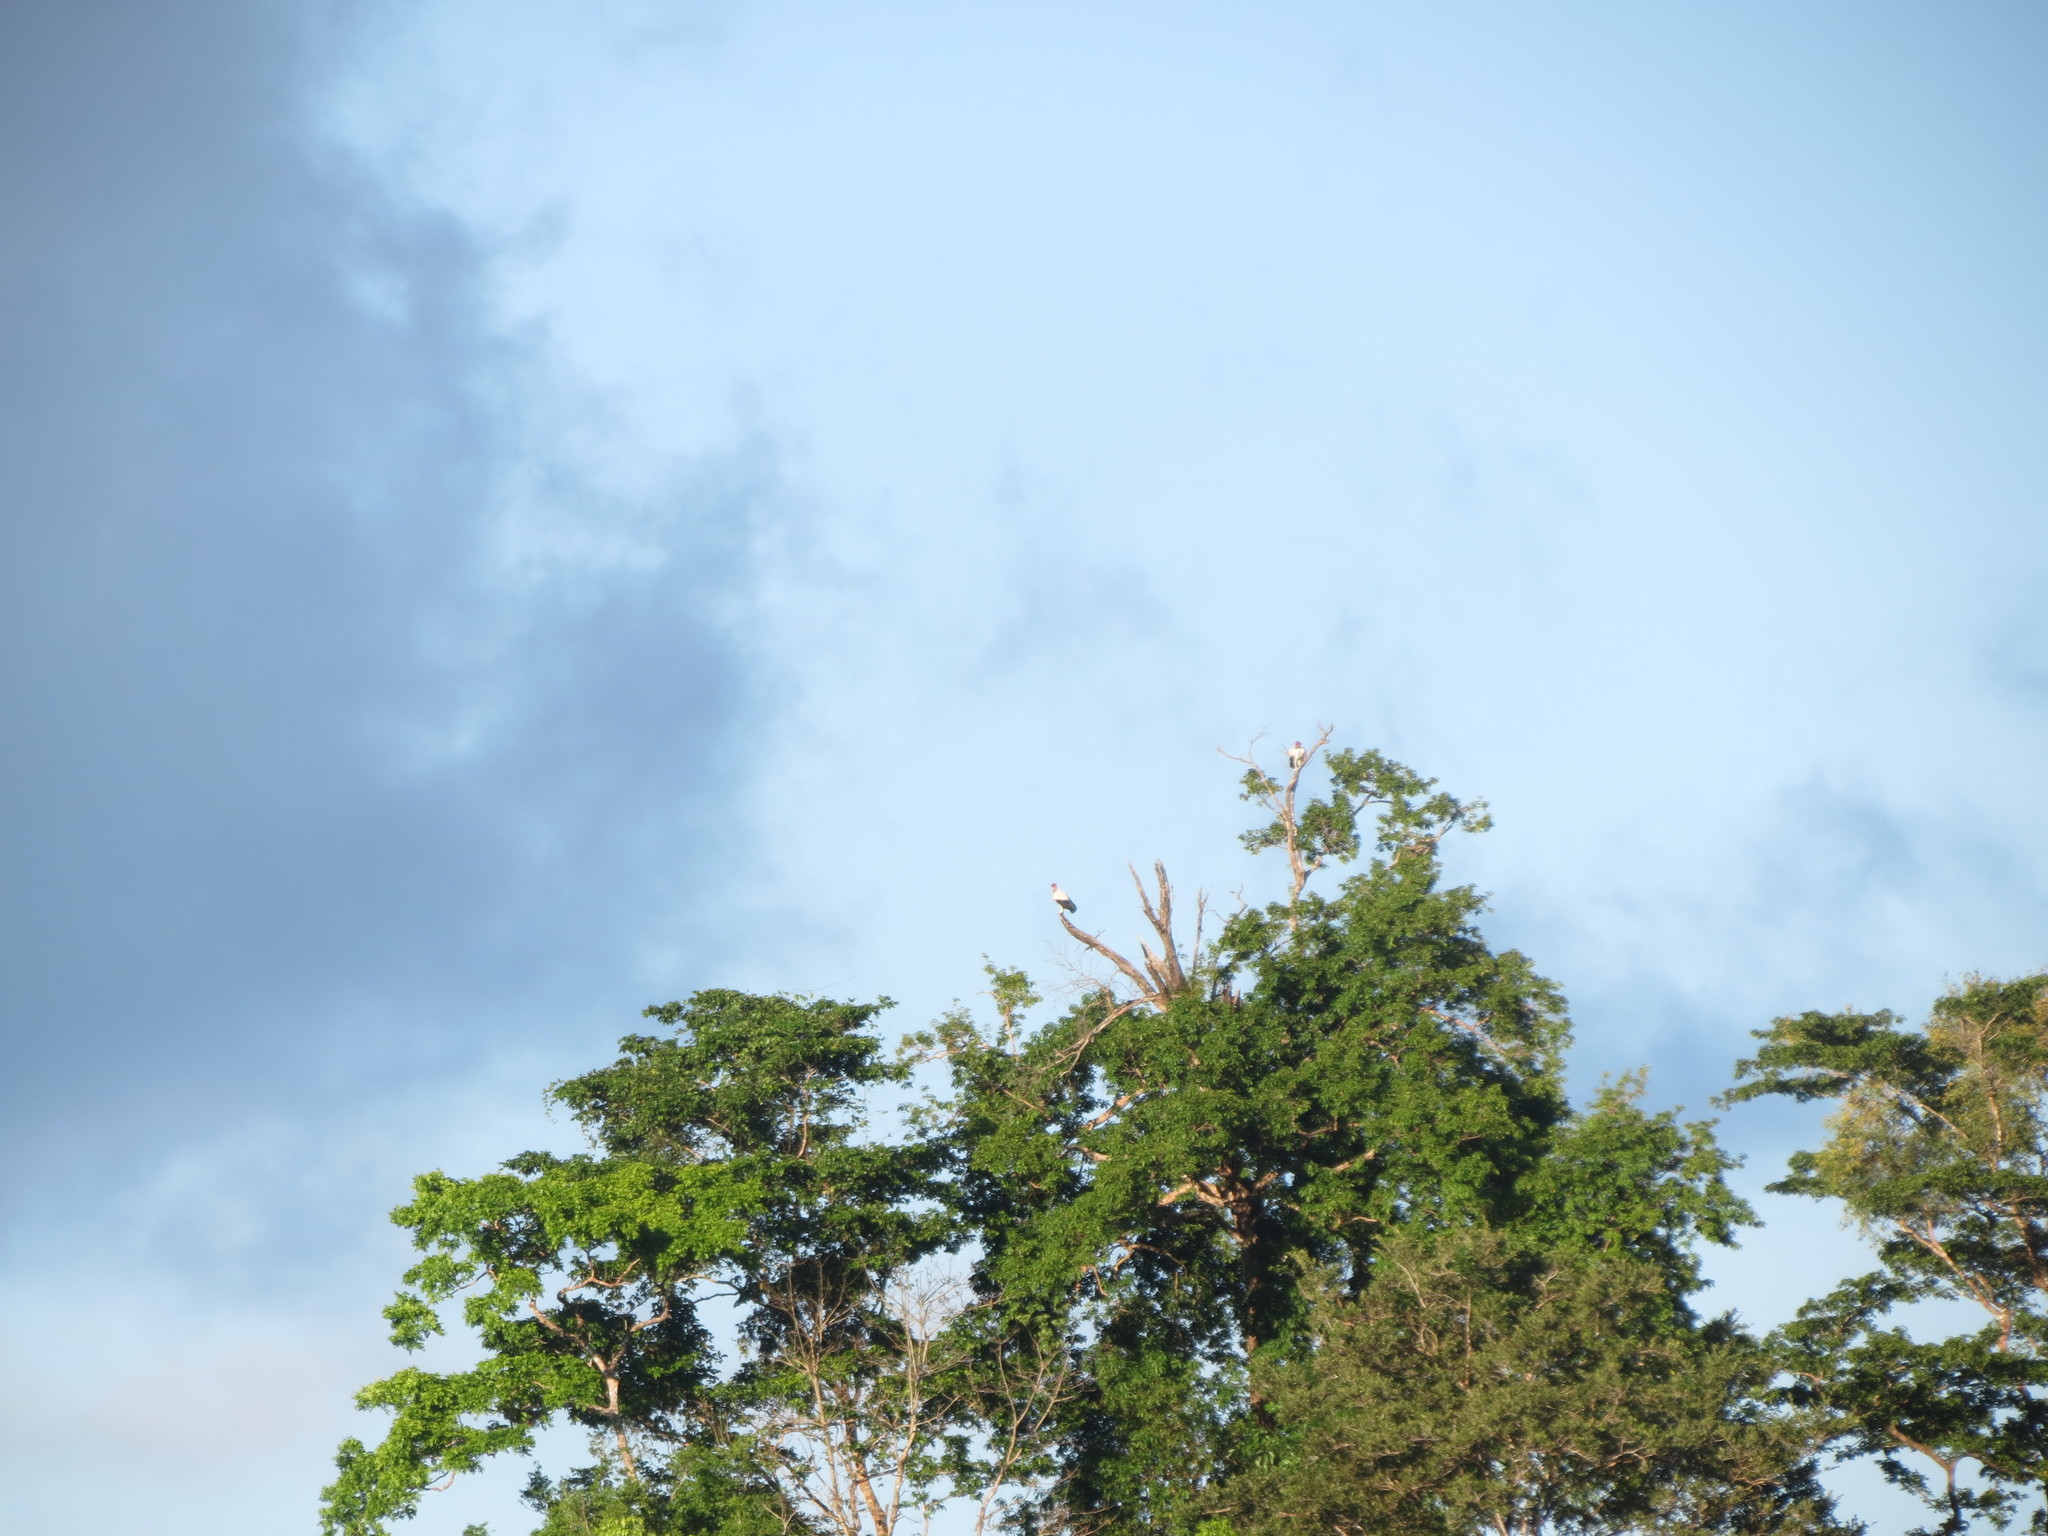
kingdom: Animalia
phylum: Chordata
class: Aves
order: Accipitriformes
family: Cathartidae
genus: Sarcoramphus
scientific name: Sarcoramphus papa
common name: King vulture
